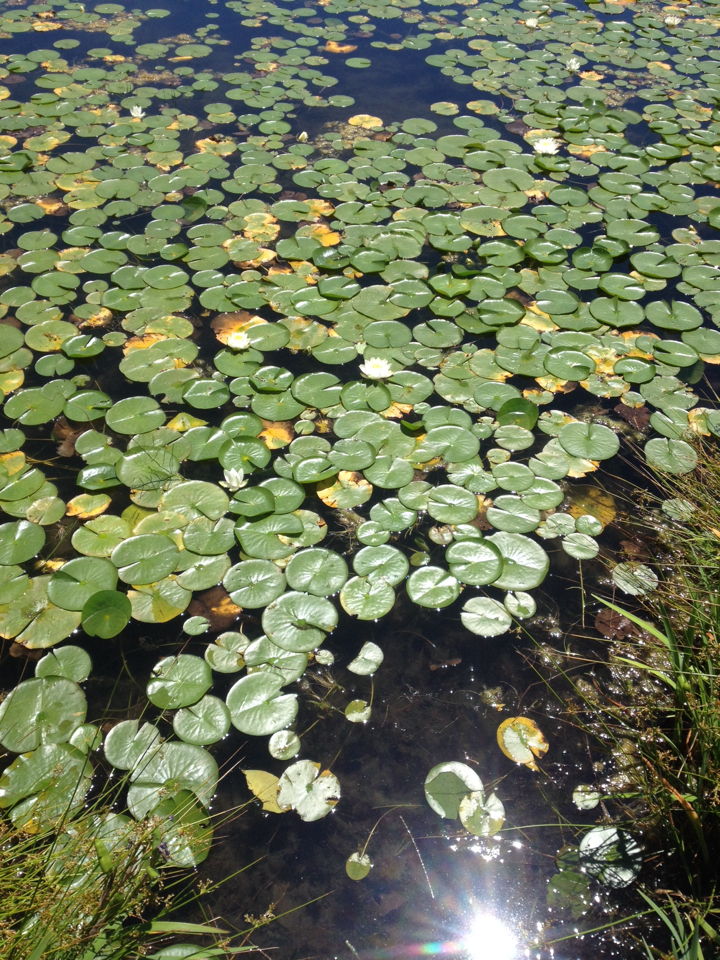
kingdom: Plantae
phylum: Tracheophyta
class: Magnoliopsida
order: Nymphaeales
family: Nymphaeaceae
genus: Nymphaea
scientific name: Nymphaea odorata
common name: Fragrant water-lily
